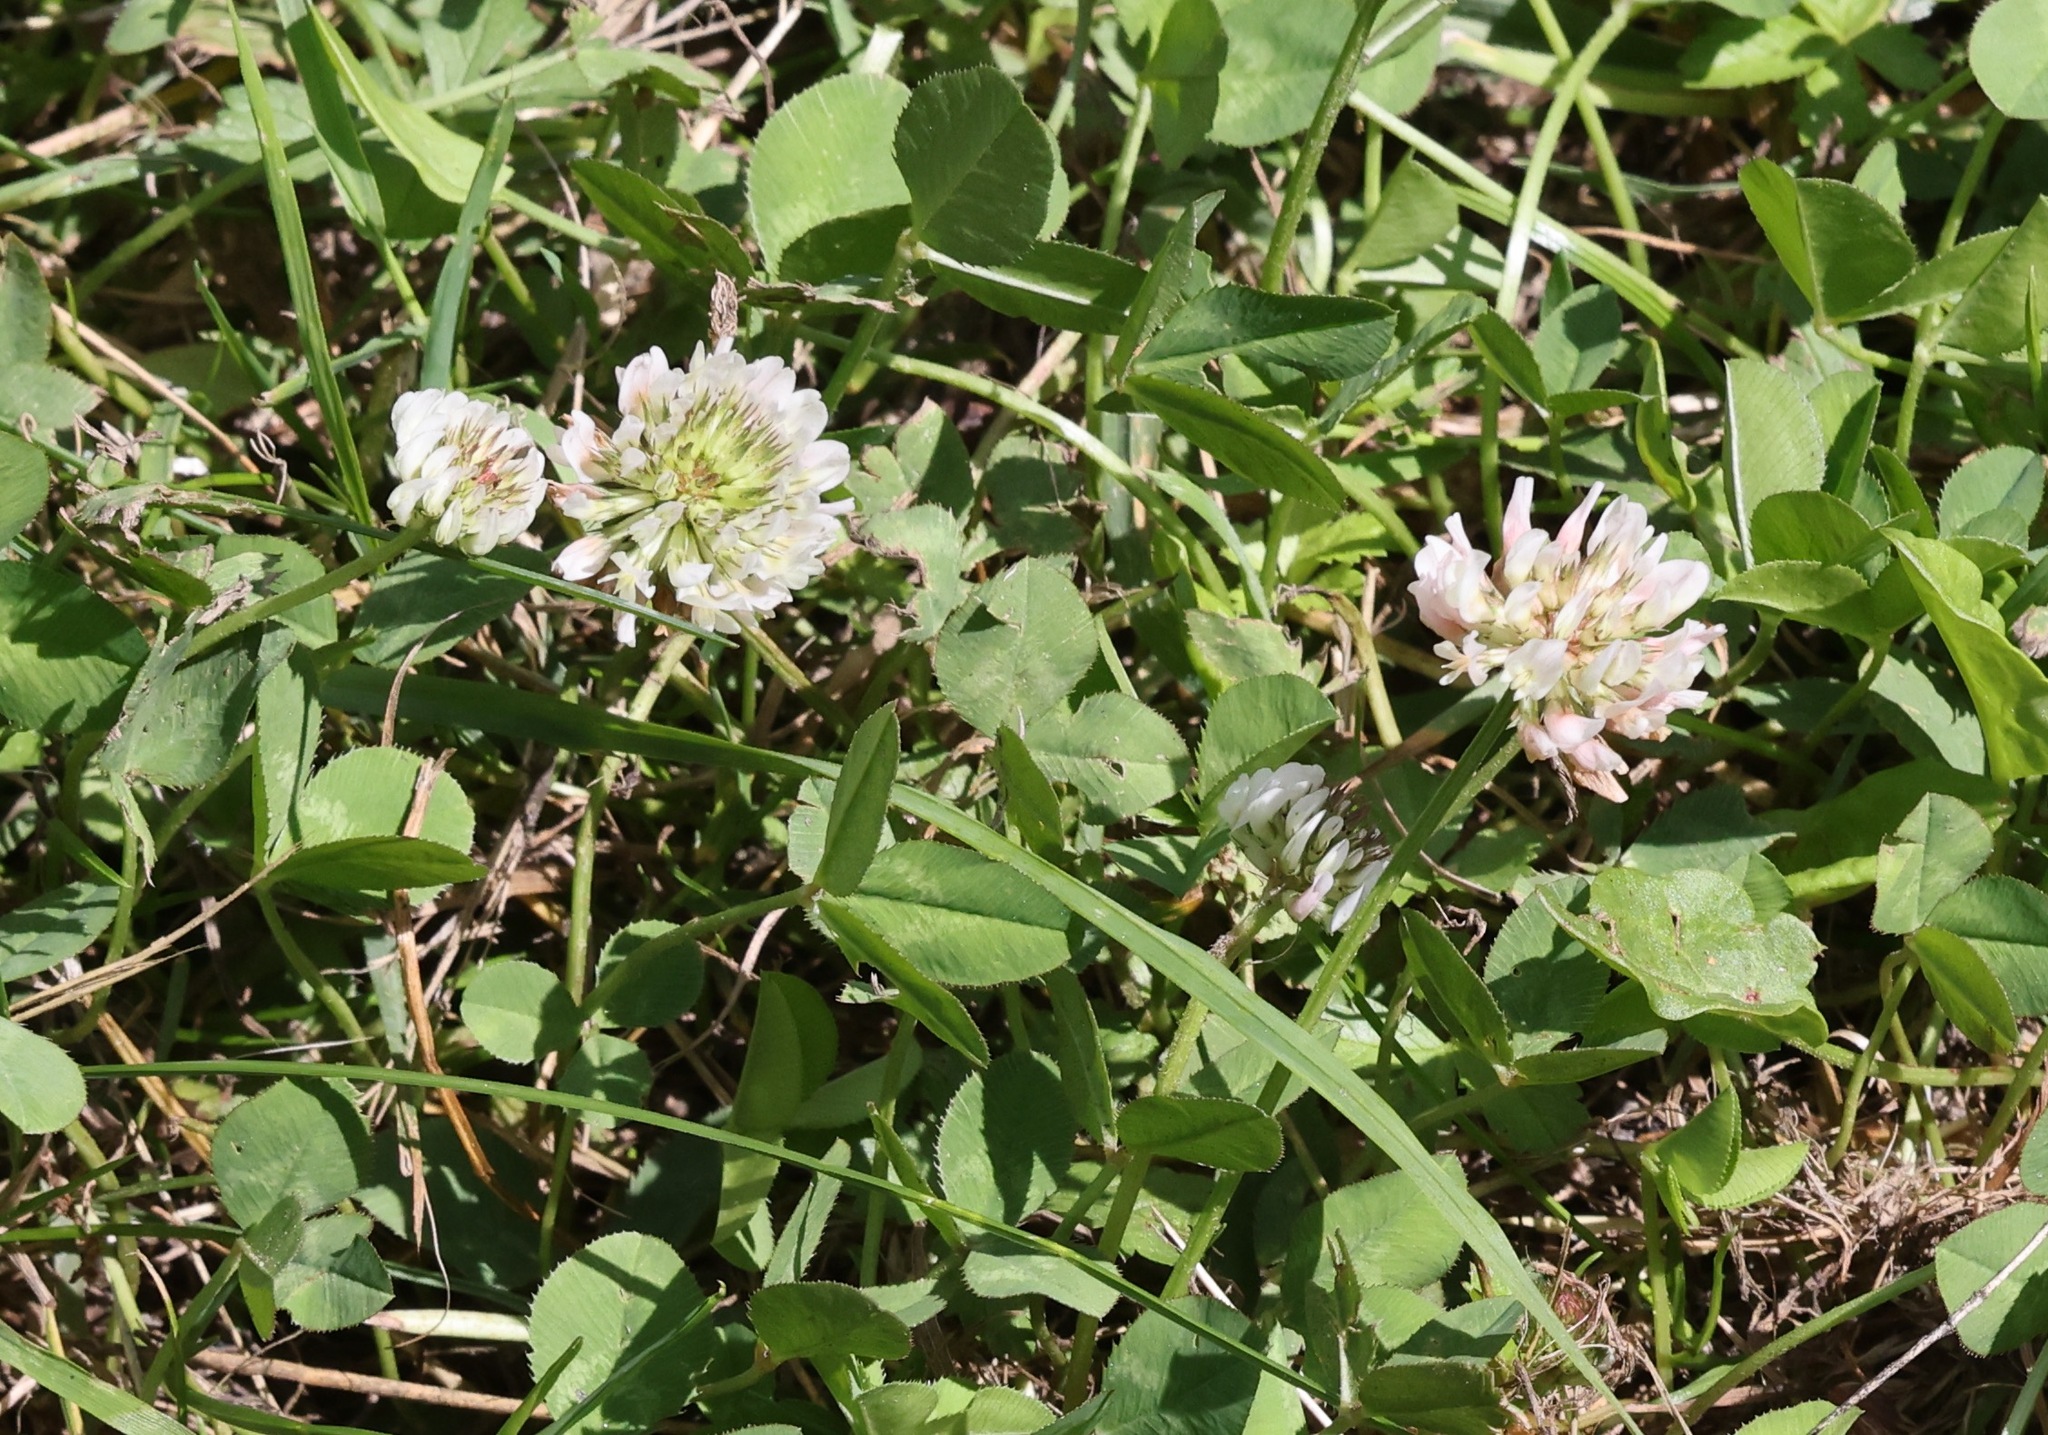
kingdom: Plantae
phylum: Tracheophyta
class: Magnoliopsida
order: Fabales
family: Fabaceae
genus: Trifolium
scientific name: Trifolium repens
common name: White clover
